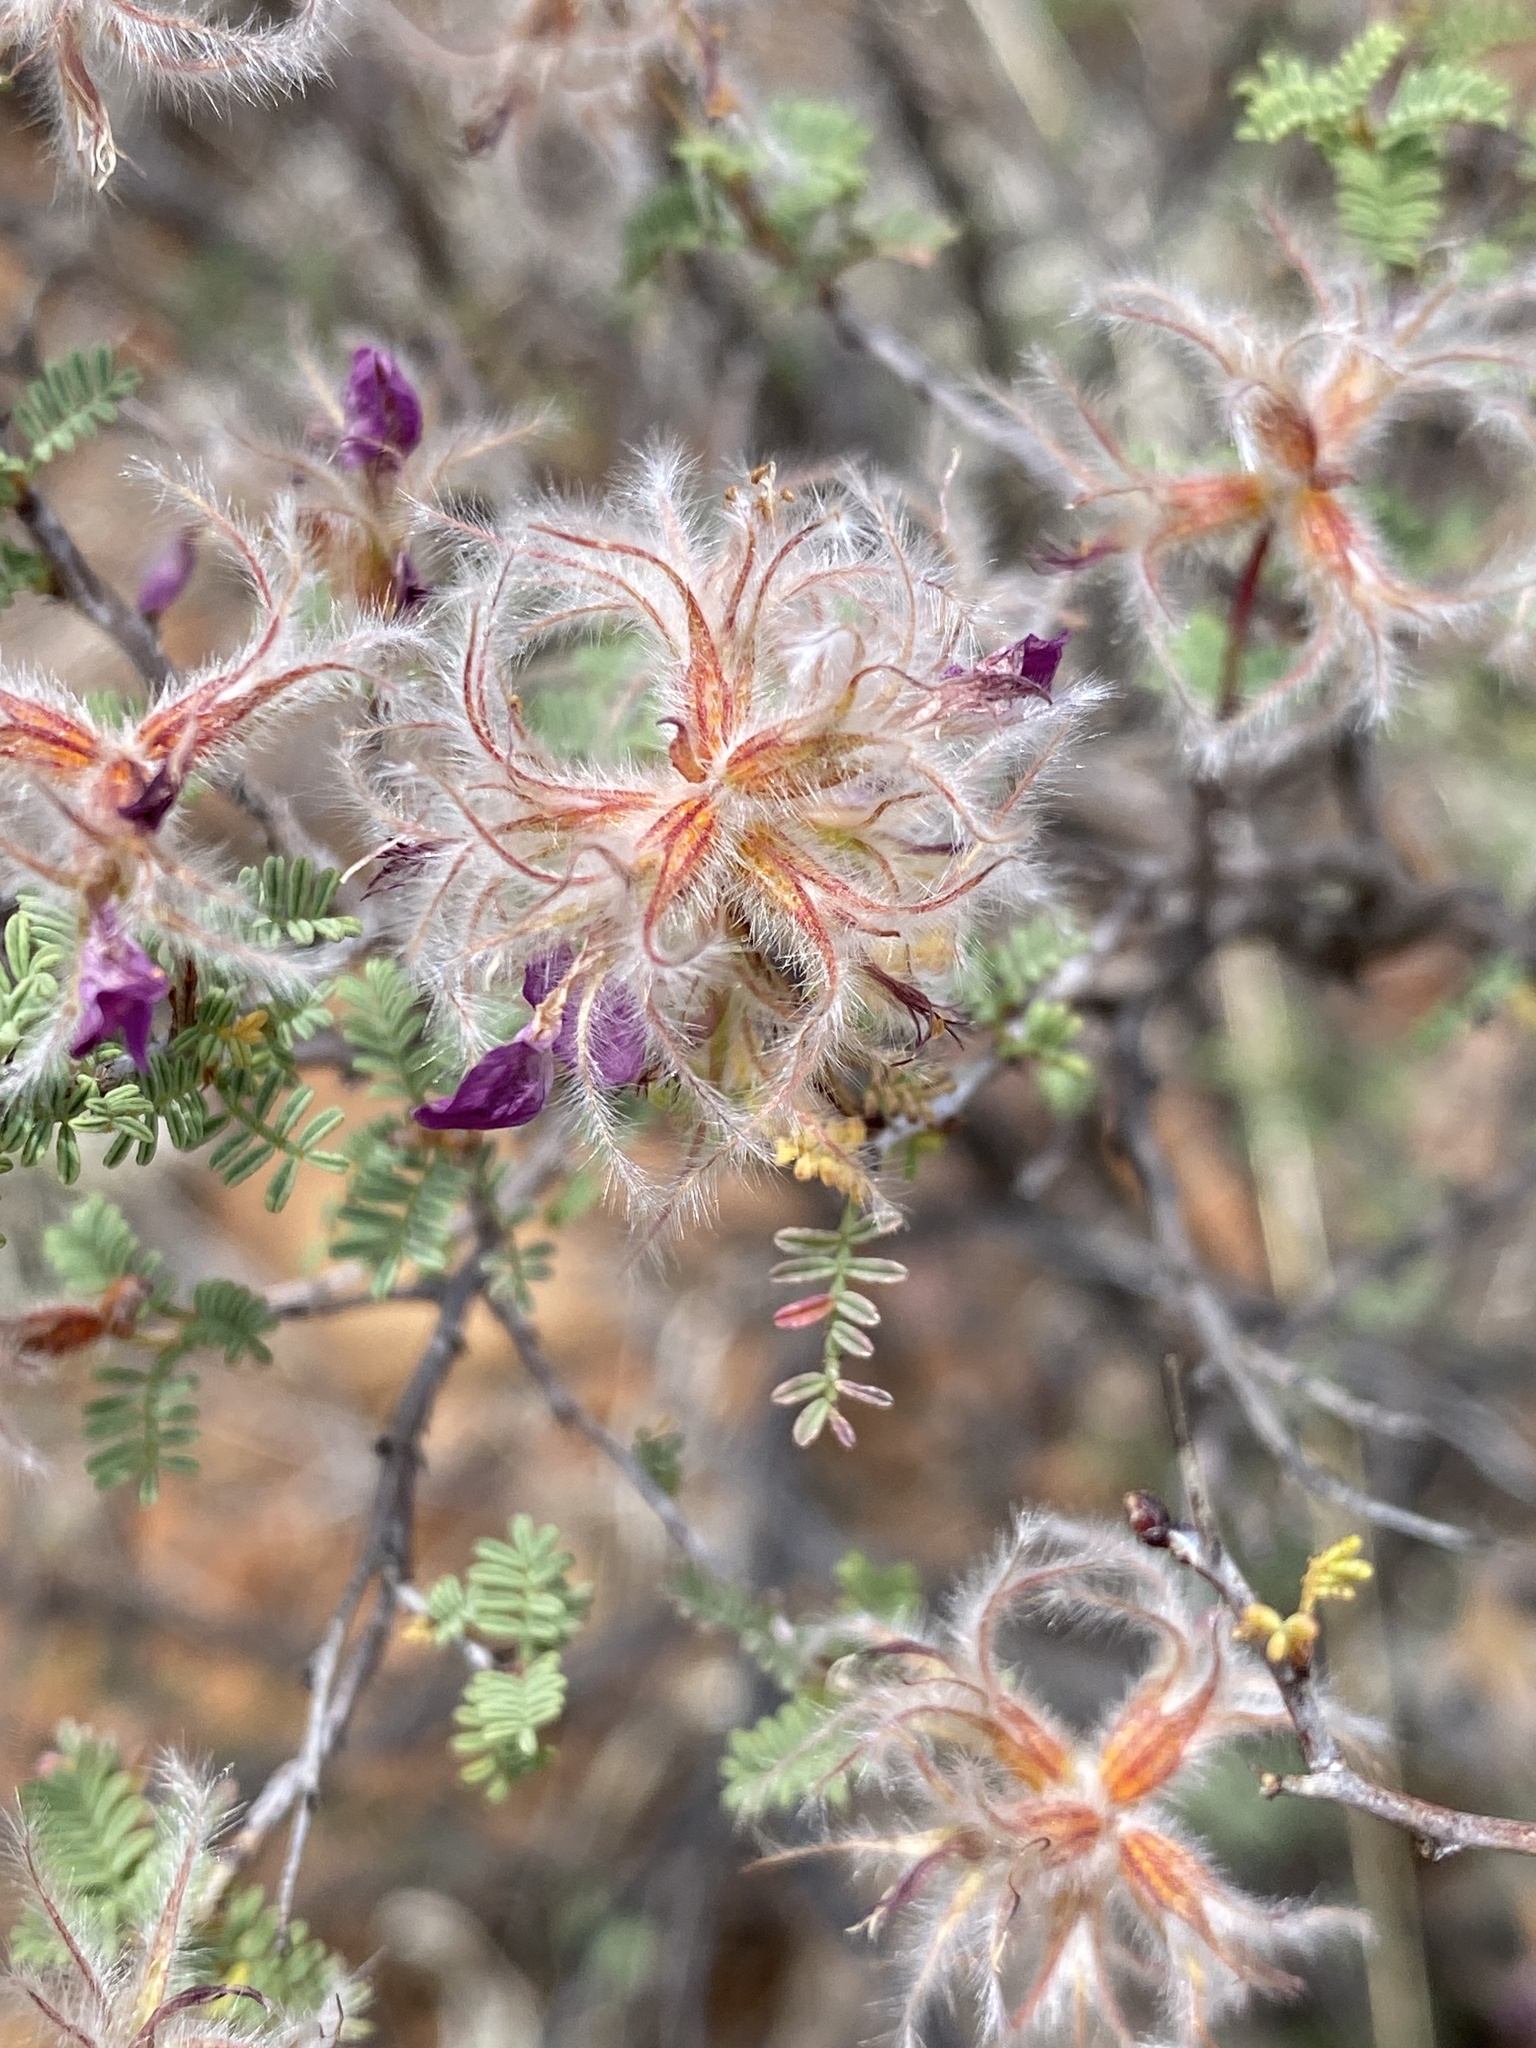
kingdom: Plantae
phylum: Tracheophyta
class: Magnoliopsida
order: Fabales
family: Fabaceae
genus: Dalea
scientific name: Dalea formosa
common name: Feather-plume dalea
